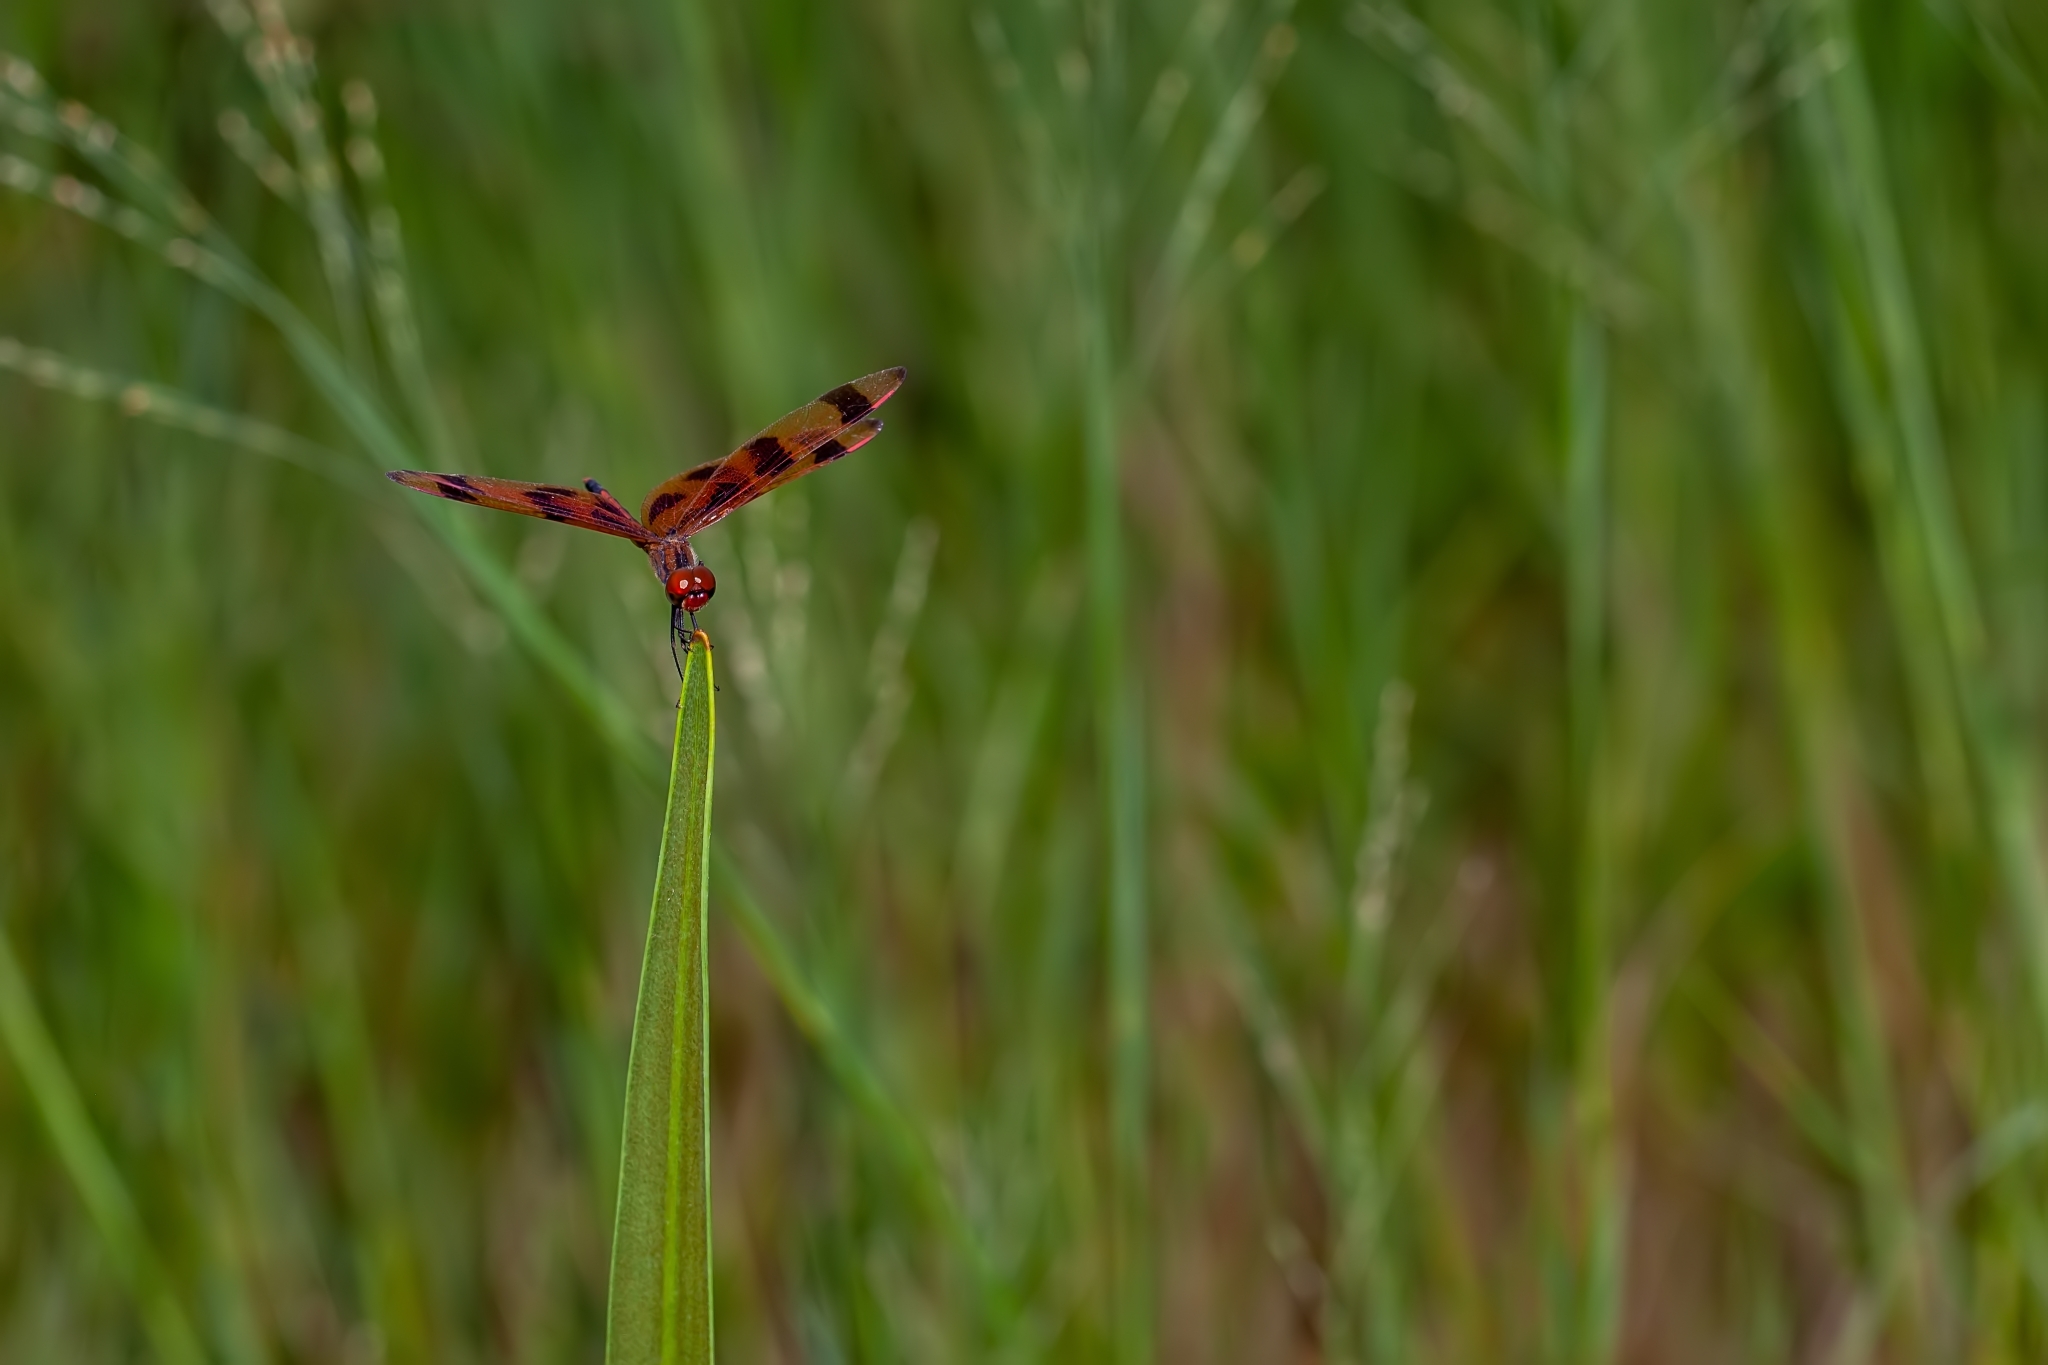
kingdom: Animalia
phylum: Arthropoda
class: Insecta
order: Odonata
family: Libellulidae
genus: Celithemis
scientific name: Celithemis eponina
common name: Halloween pennant
